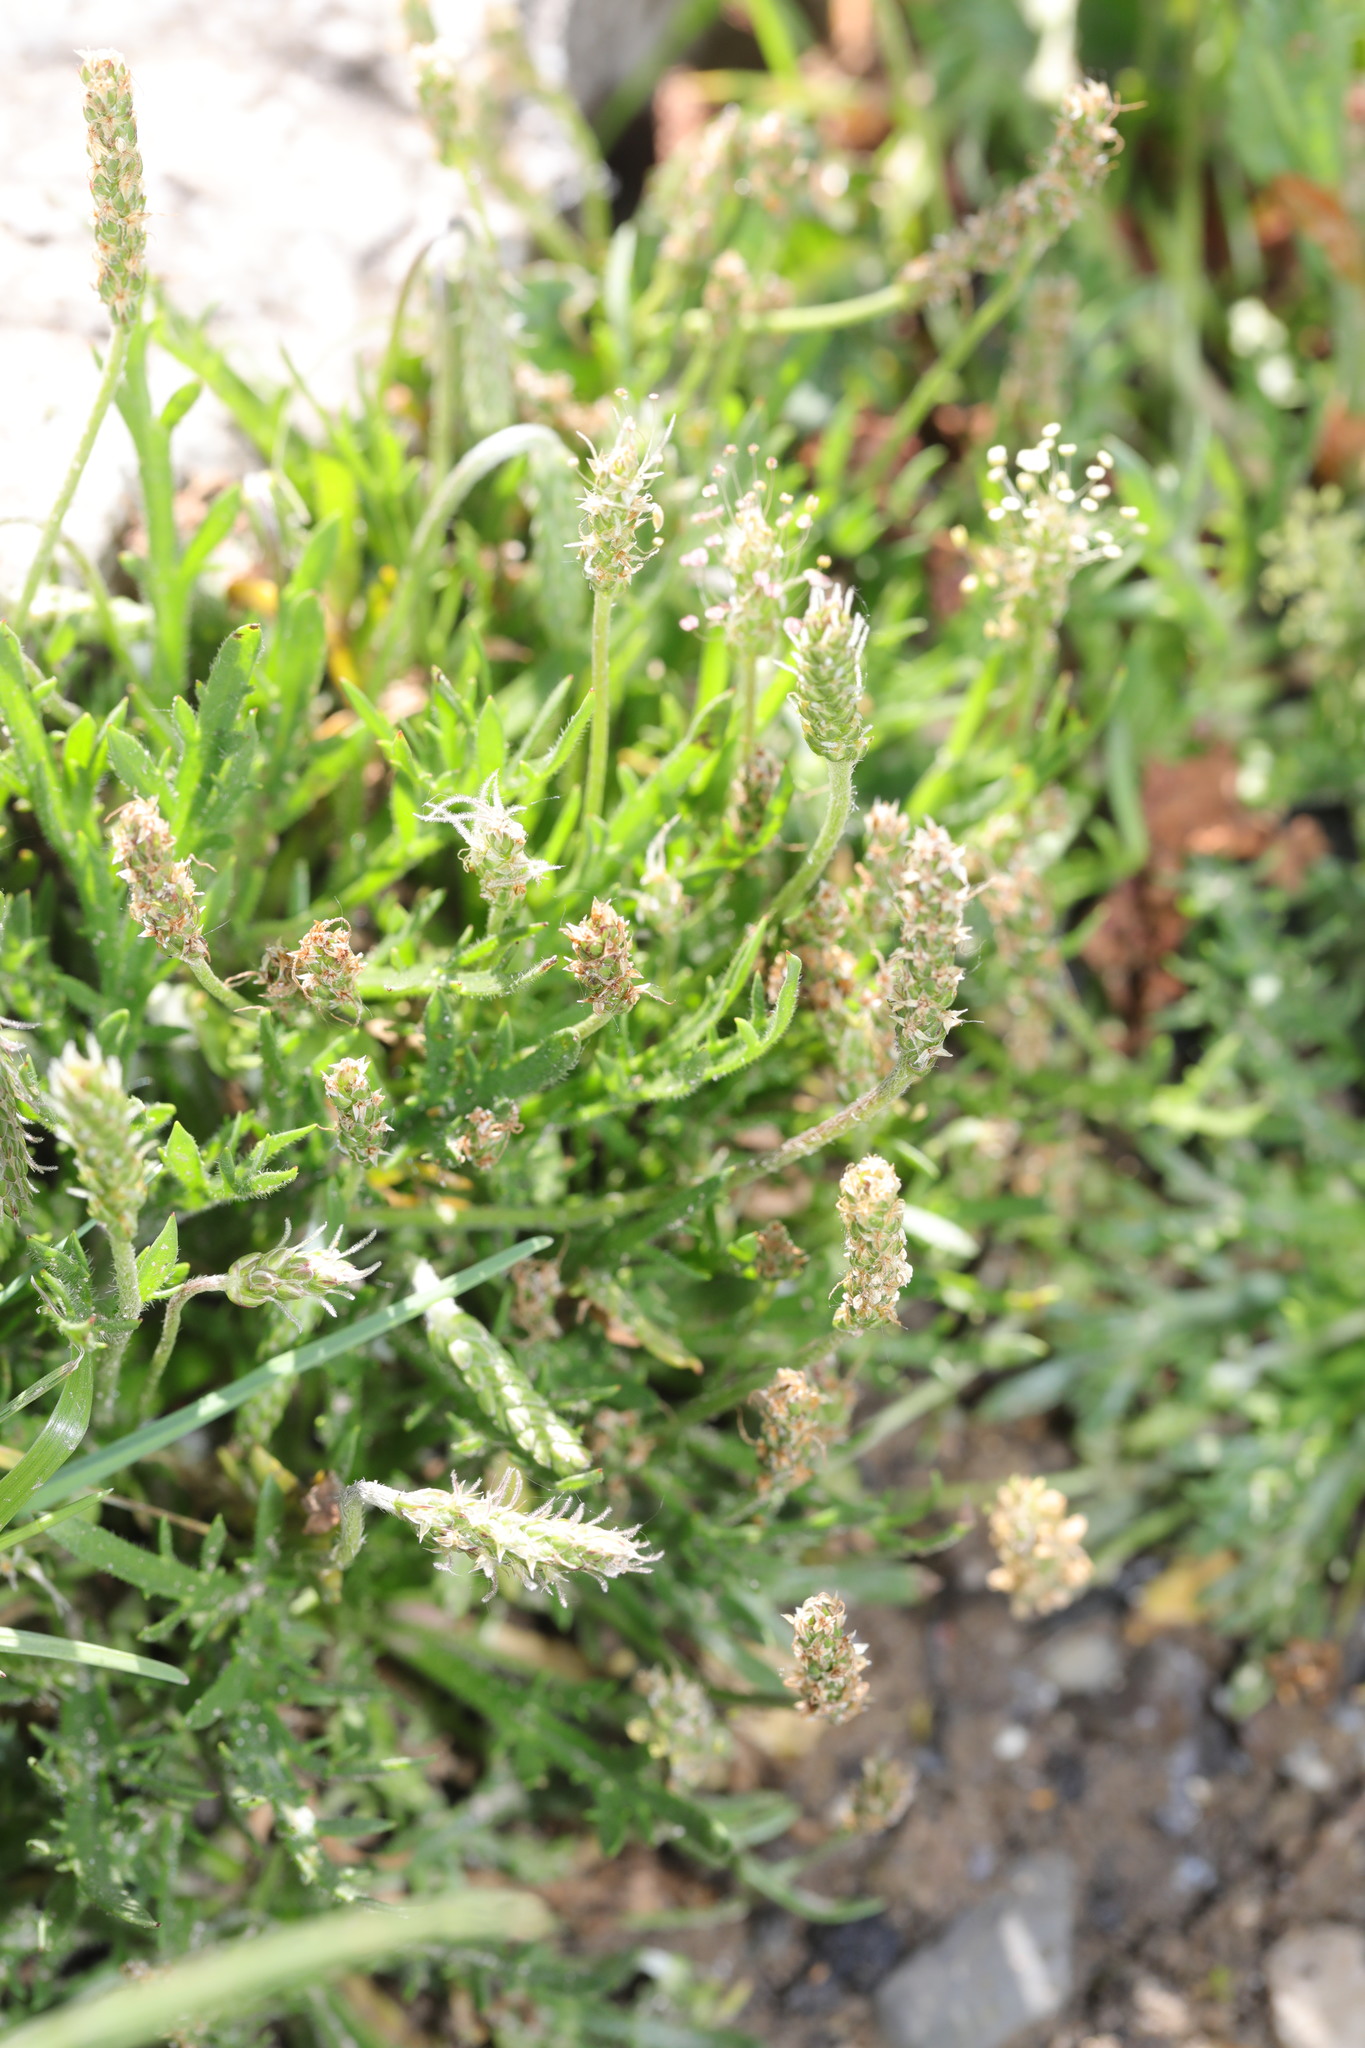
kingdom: Plantae
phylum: Tracheophyta
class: Magnoliopsida
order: Lamiales
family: Plantaginaceae
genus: Plantago
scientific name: Plantago coronopus
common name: Buck's-horn plantain
